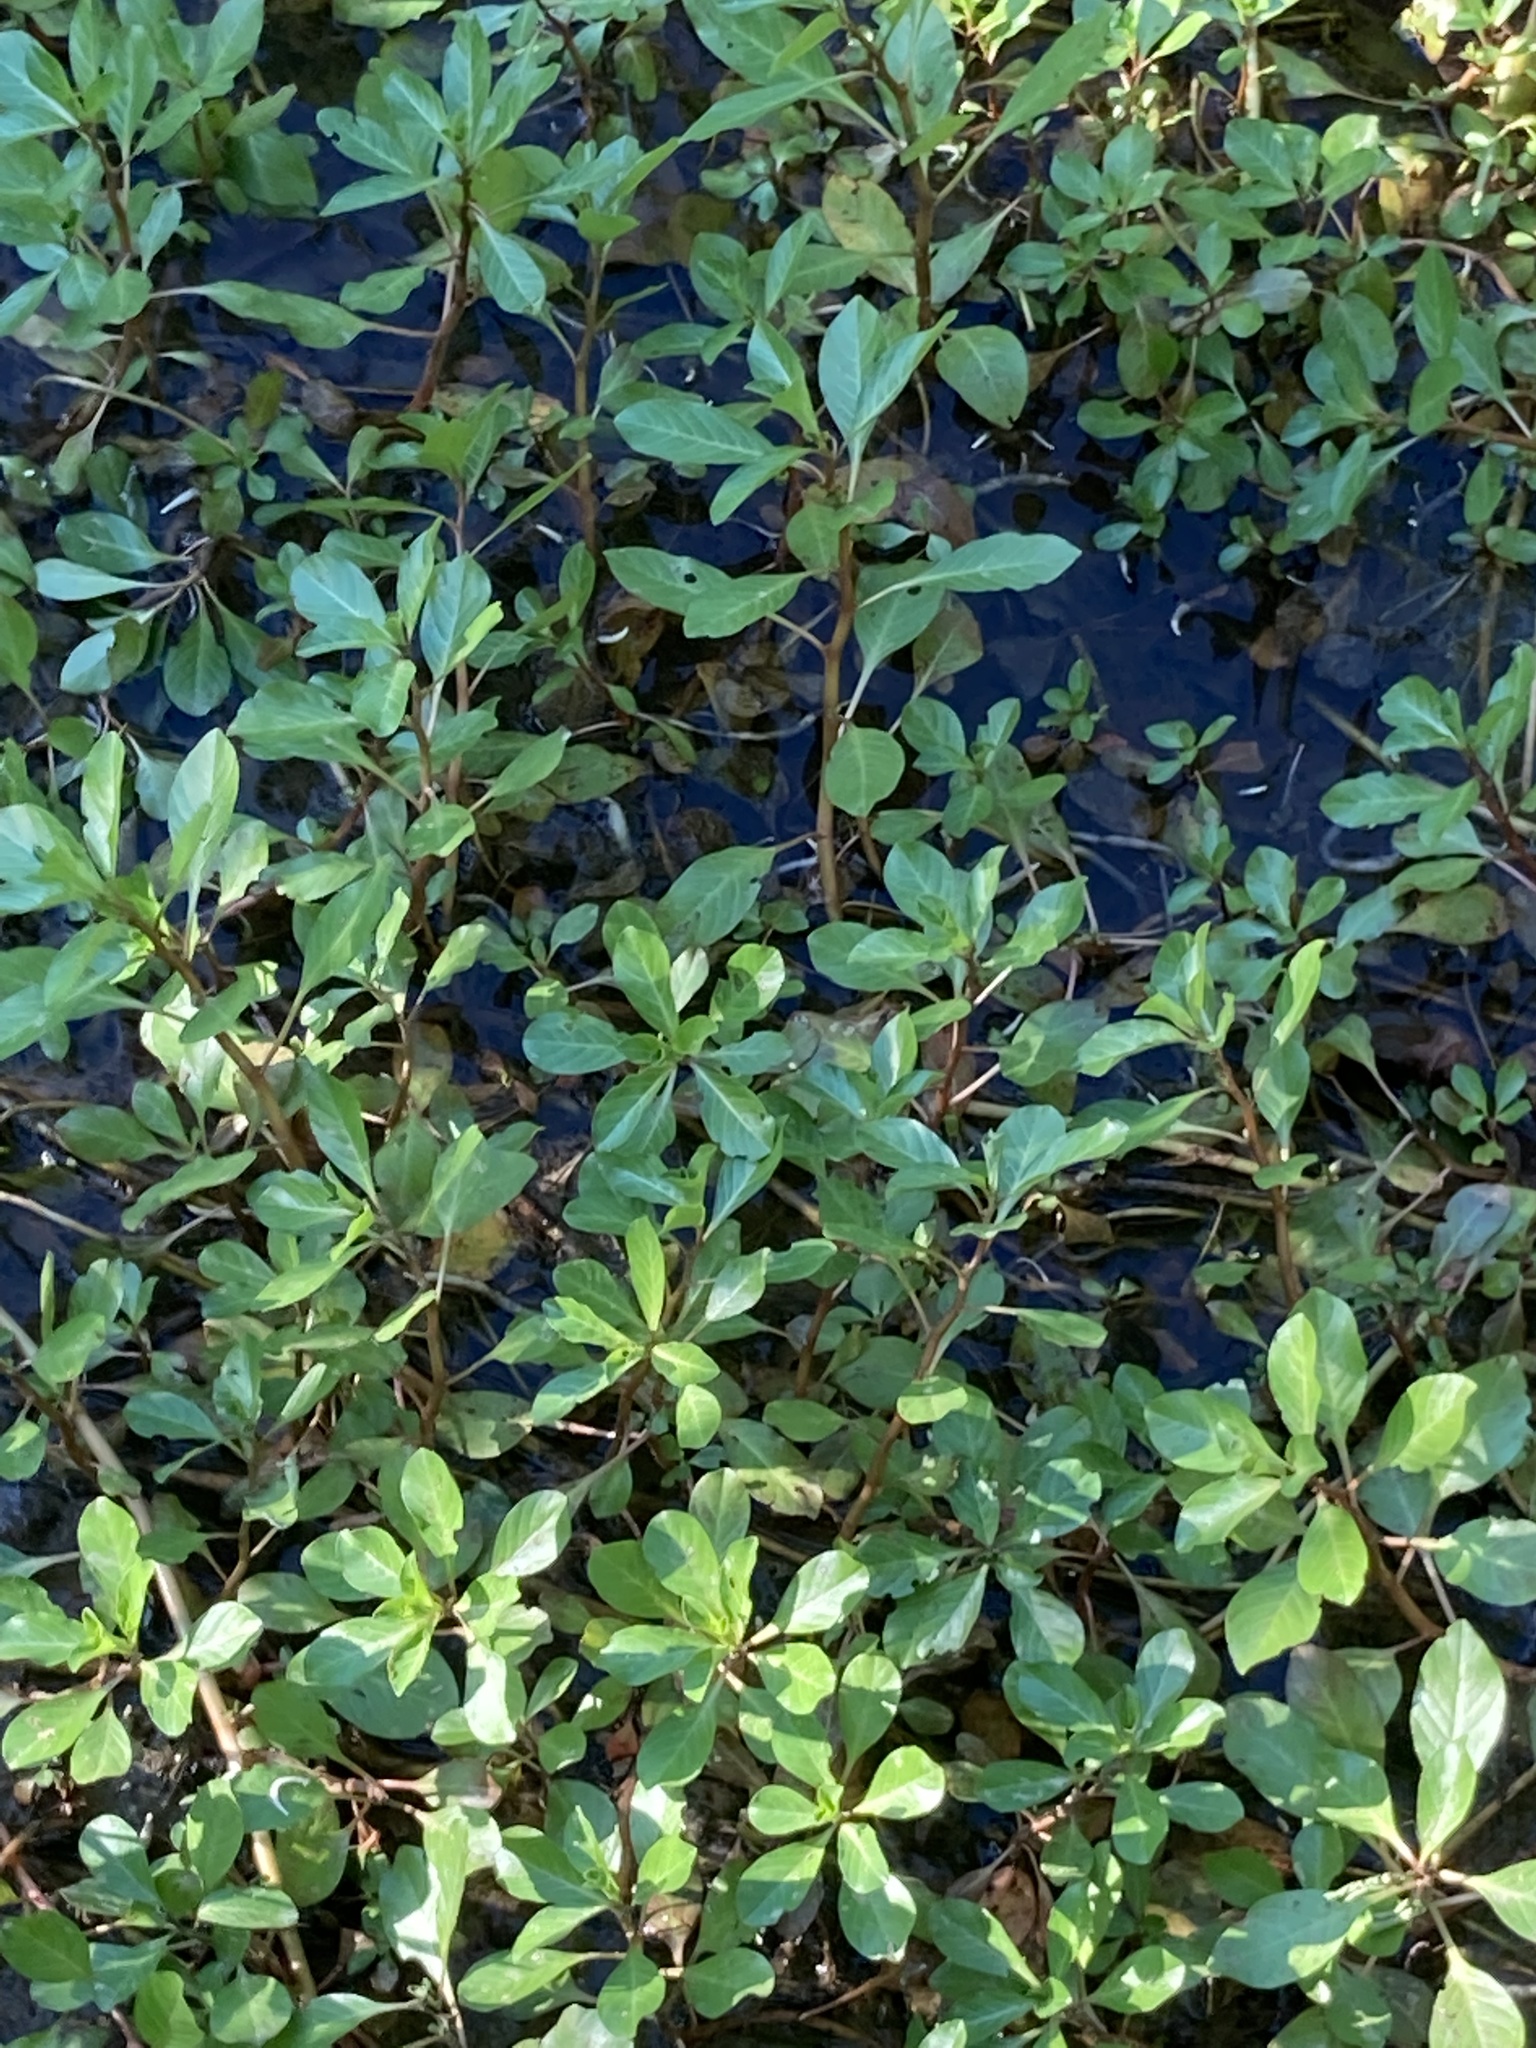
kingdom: Plantae
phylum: Tracheophyta
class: Magnoliopsida
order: Myrtales
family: Onagraceae
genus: Ludwigia
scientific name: Ludwigia peploides
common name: Floating primrose-willow
